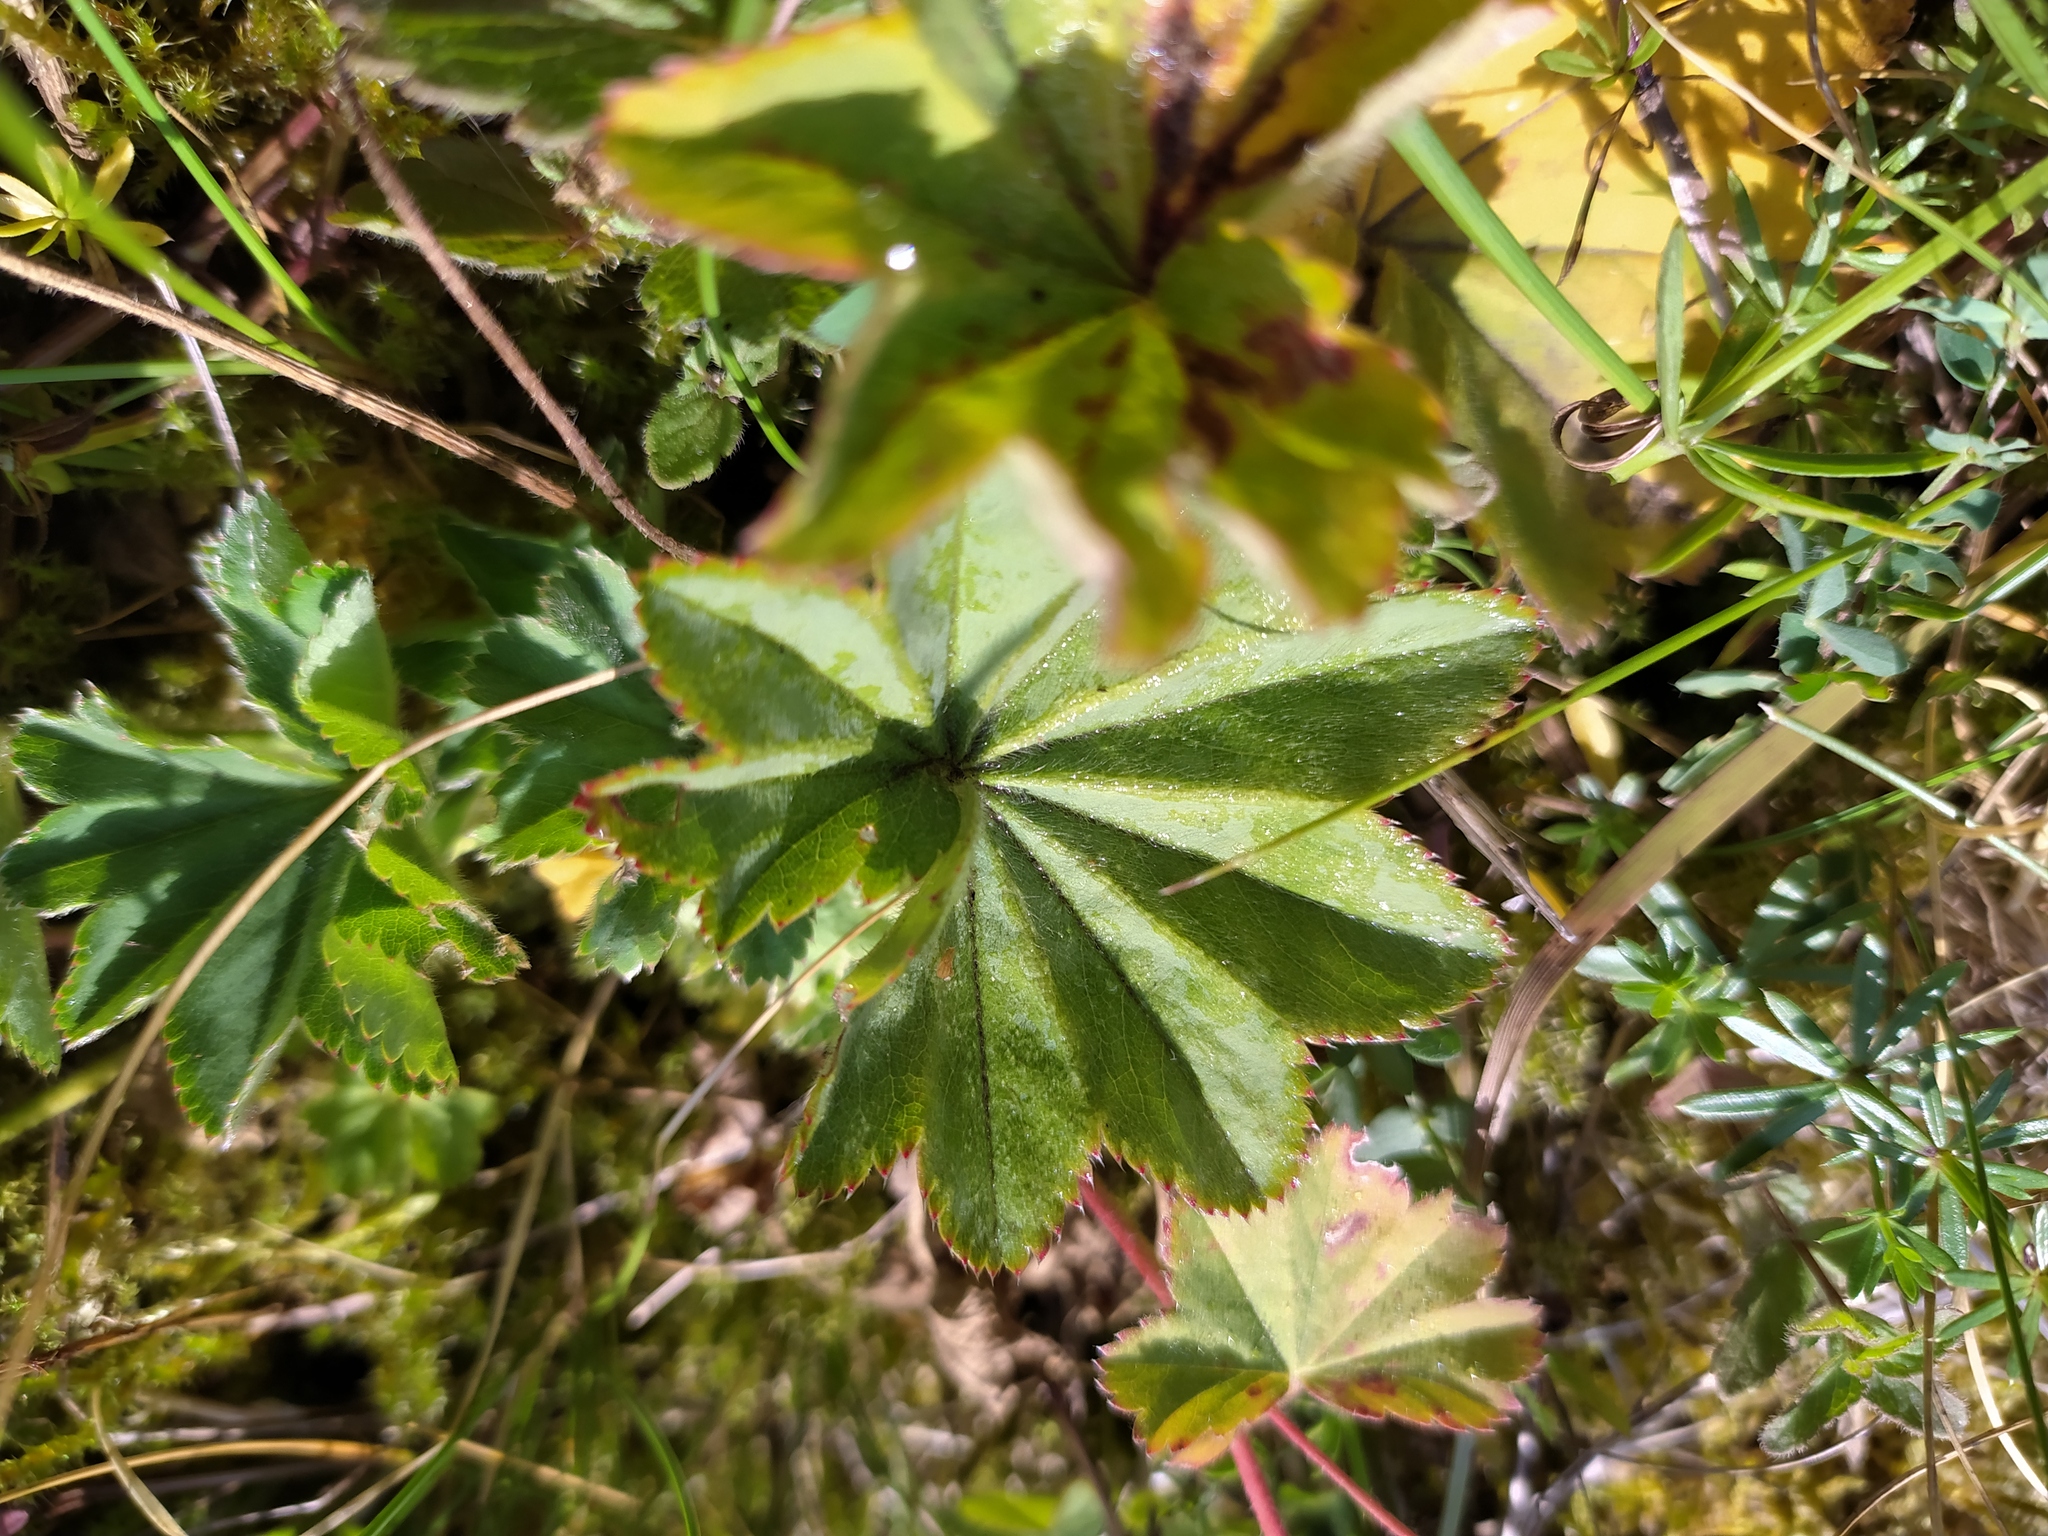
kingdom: Plantae
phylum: Tracheophyta
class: Magnoliopsida
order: Rosales
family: Rosaceae
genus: Alchemilla
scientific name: Alchemilla monticola
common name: Hairy lady's mantle
